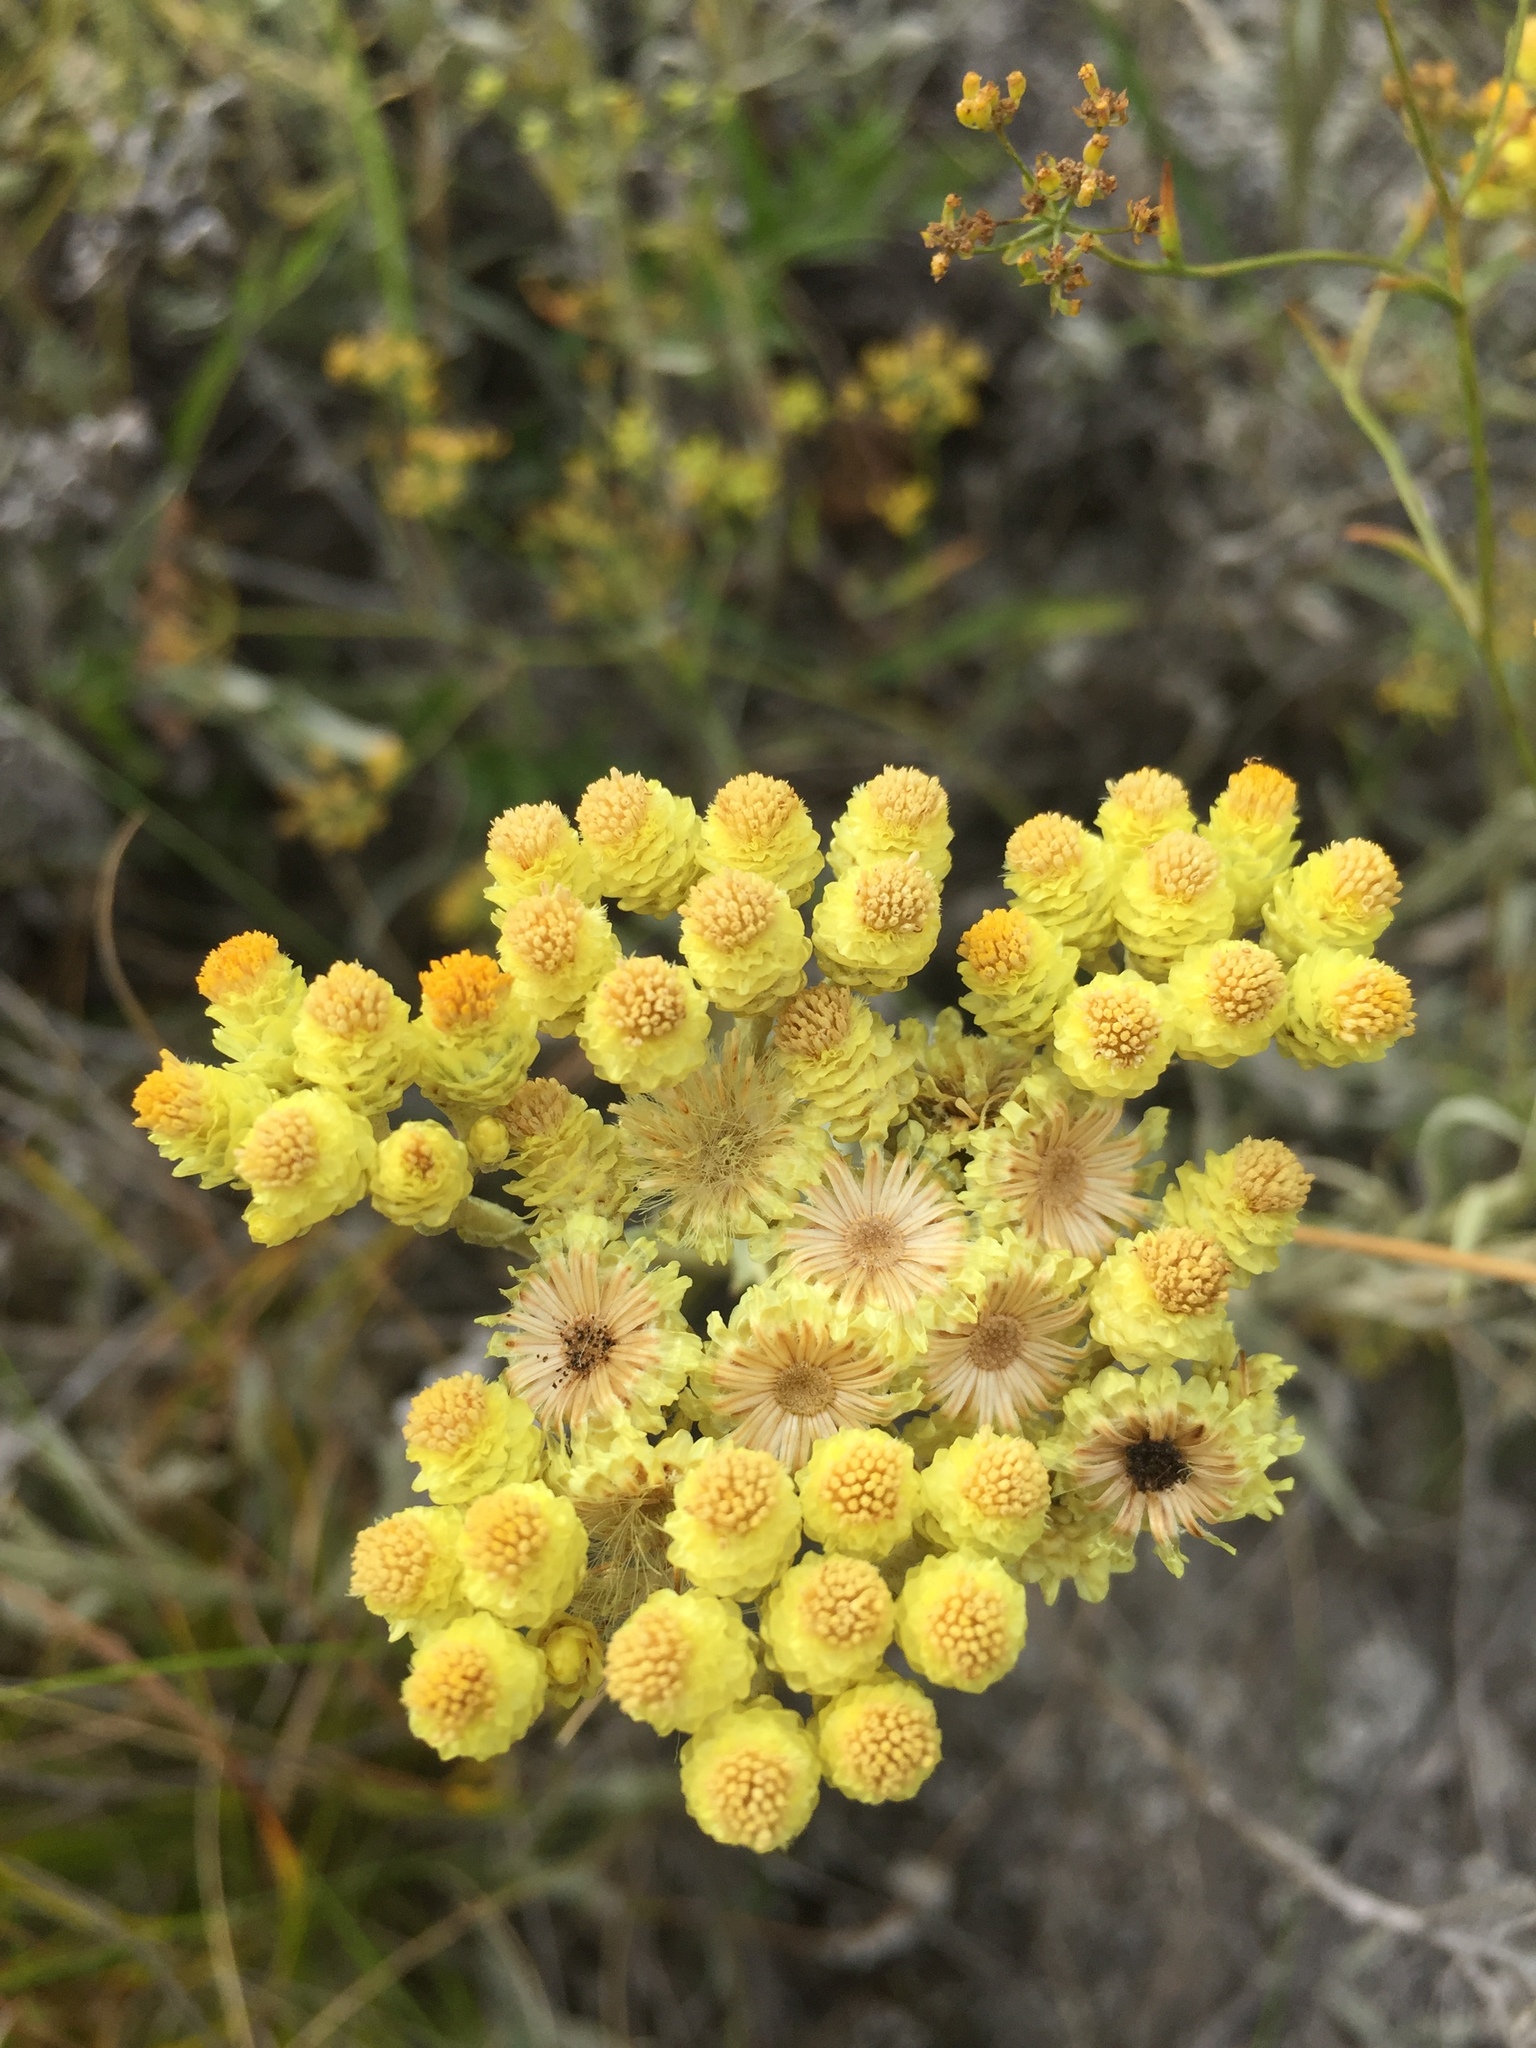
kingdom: Plantae
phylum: Tracheophyta
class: Magnoliopsida
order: Asterales
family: Asteraceae
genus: Helichrysum
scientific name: Helichrysum arenarium
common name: Strawflower
